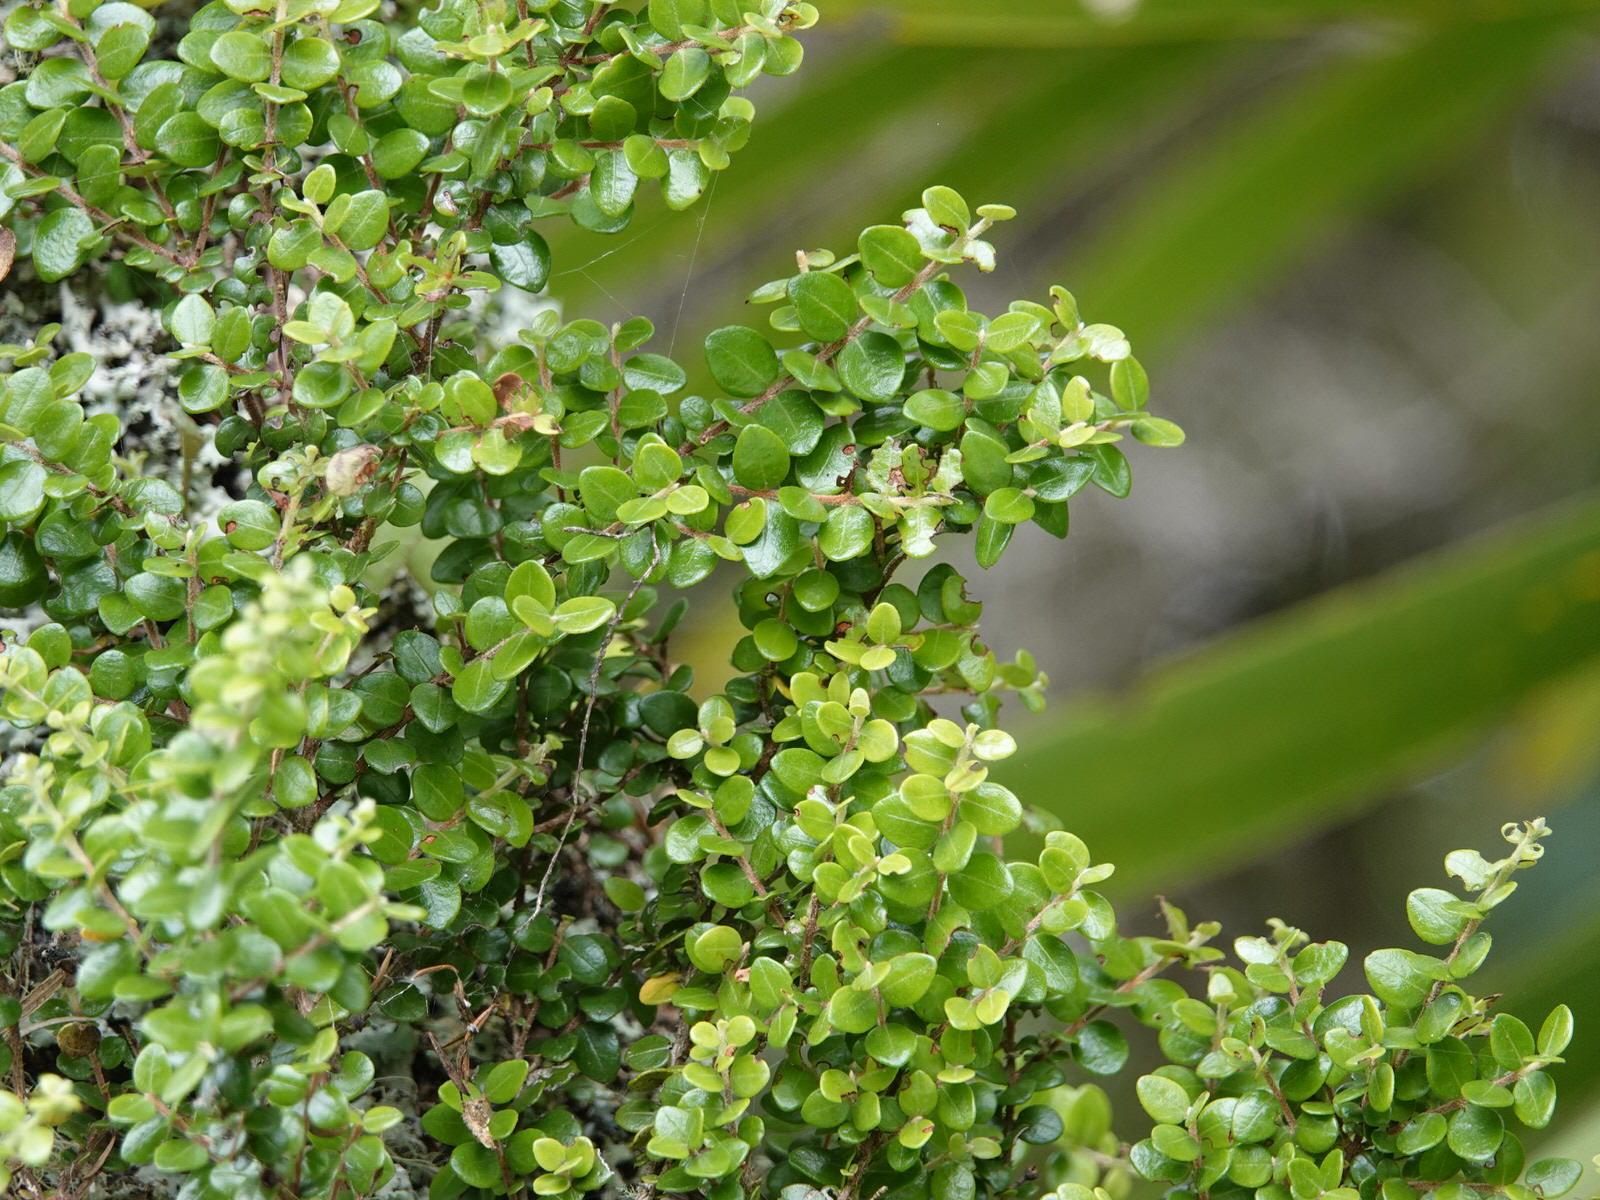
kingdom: Plantae
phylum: Tracheophyta
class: Magnoliopsida
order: Myrtales
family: Myrtaceae
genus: Metrosideros
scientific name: Metrosideros perforata
